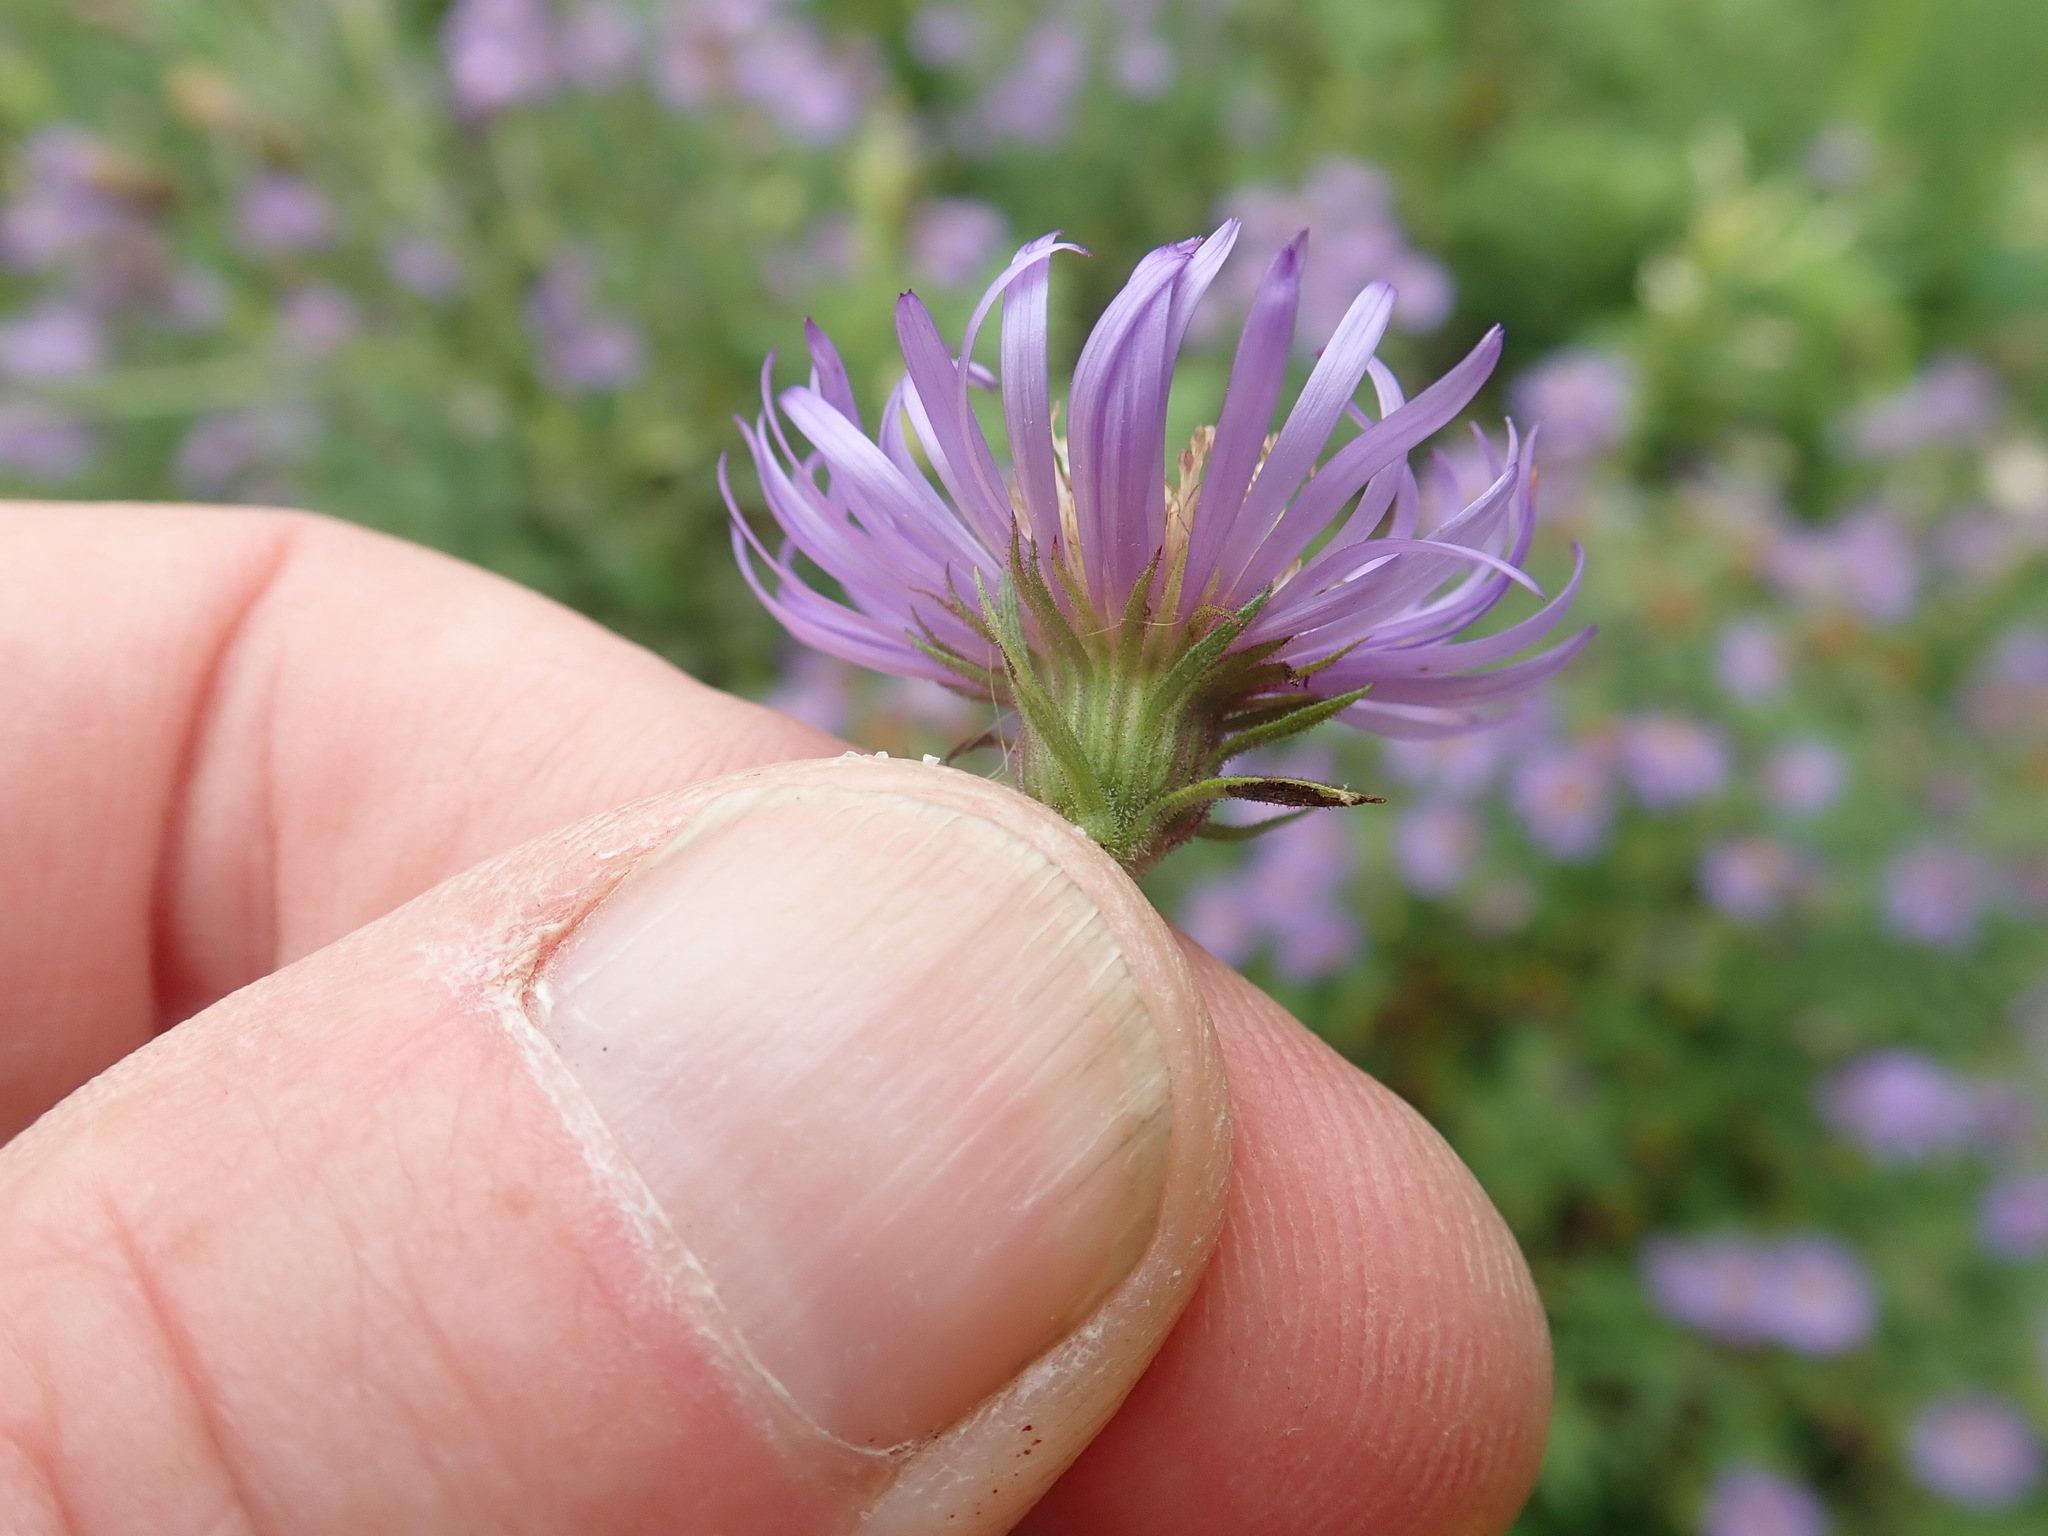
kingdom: Plantae
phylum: Tracheophyta
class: Magnoliopsida
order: Asterales
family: Asteraceae
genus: Canadanthus
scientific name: Canadanthus modestus
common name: Great northern aster
